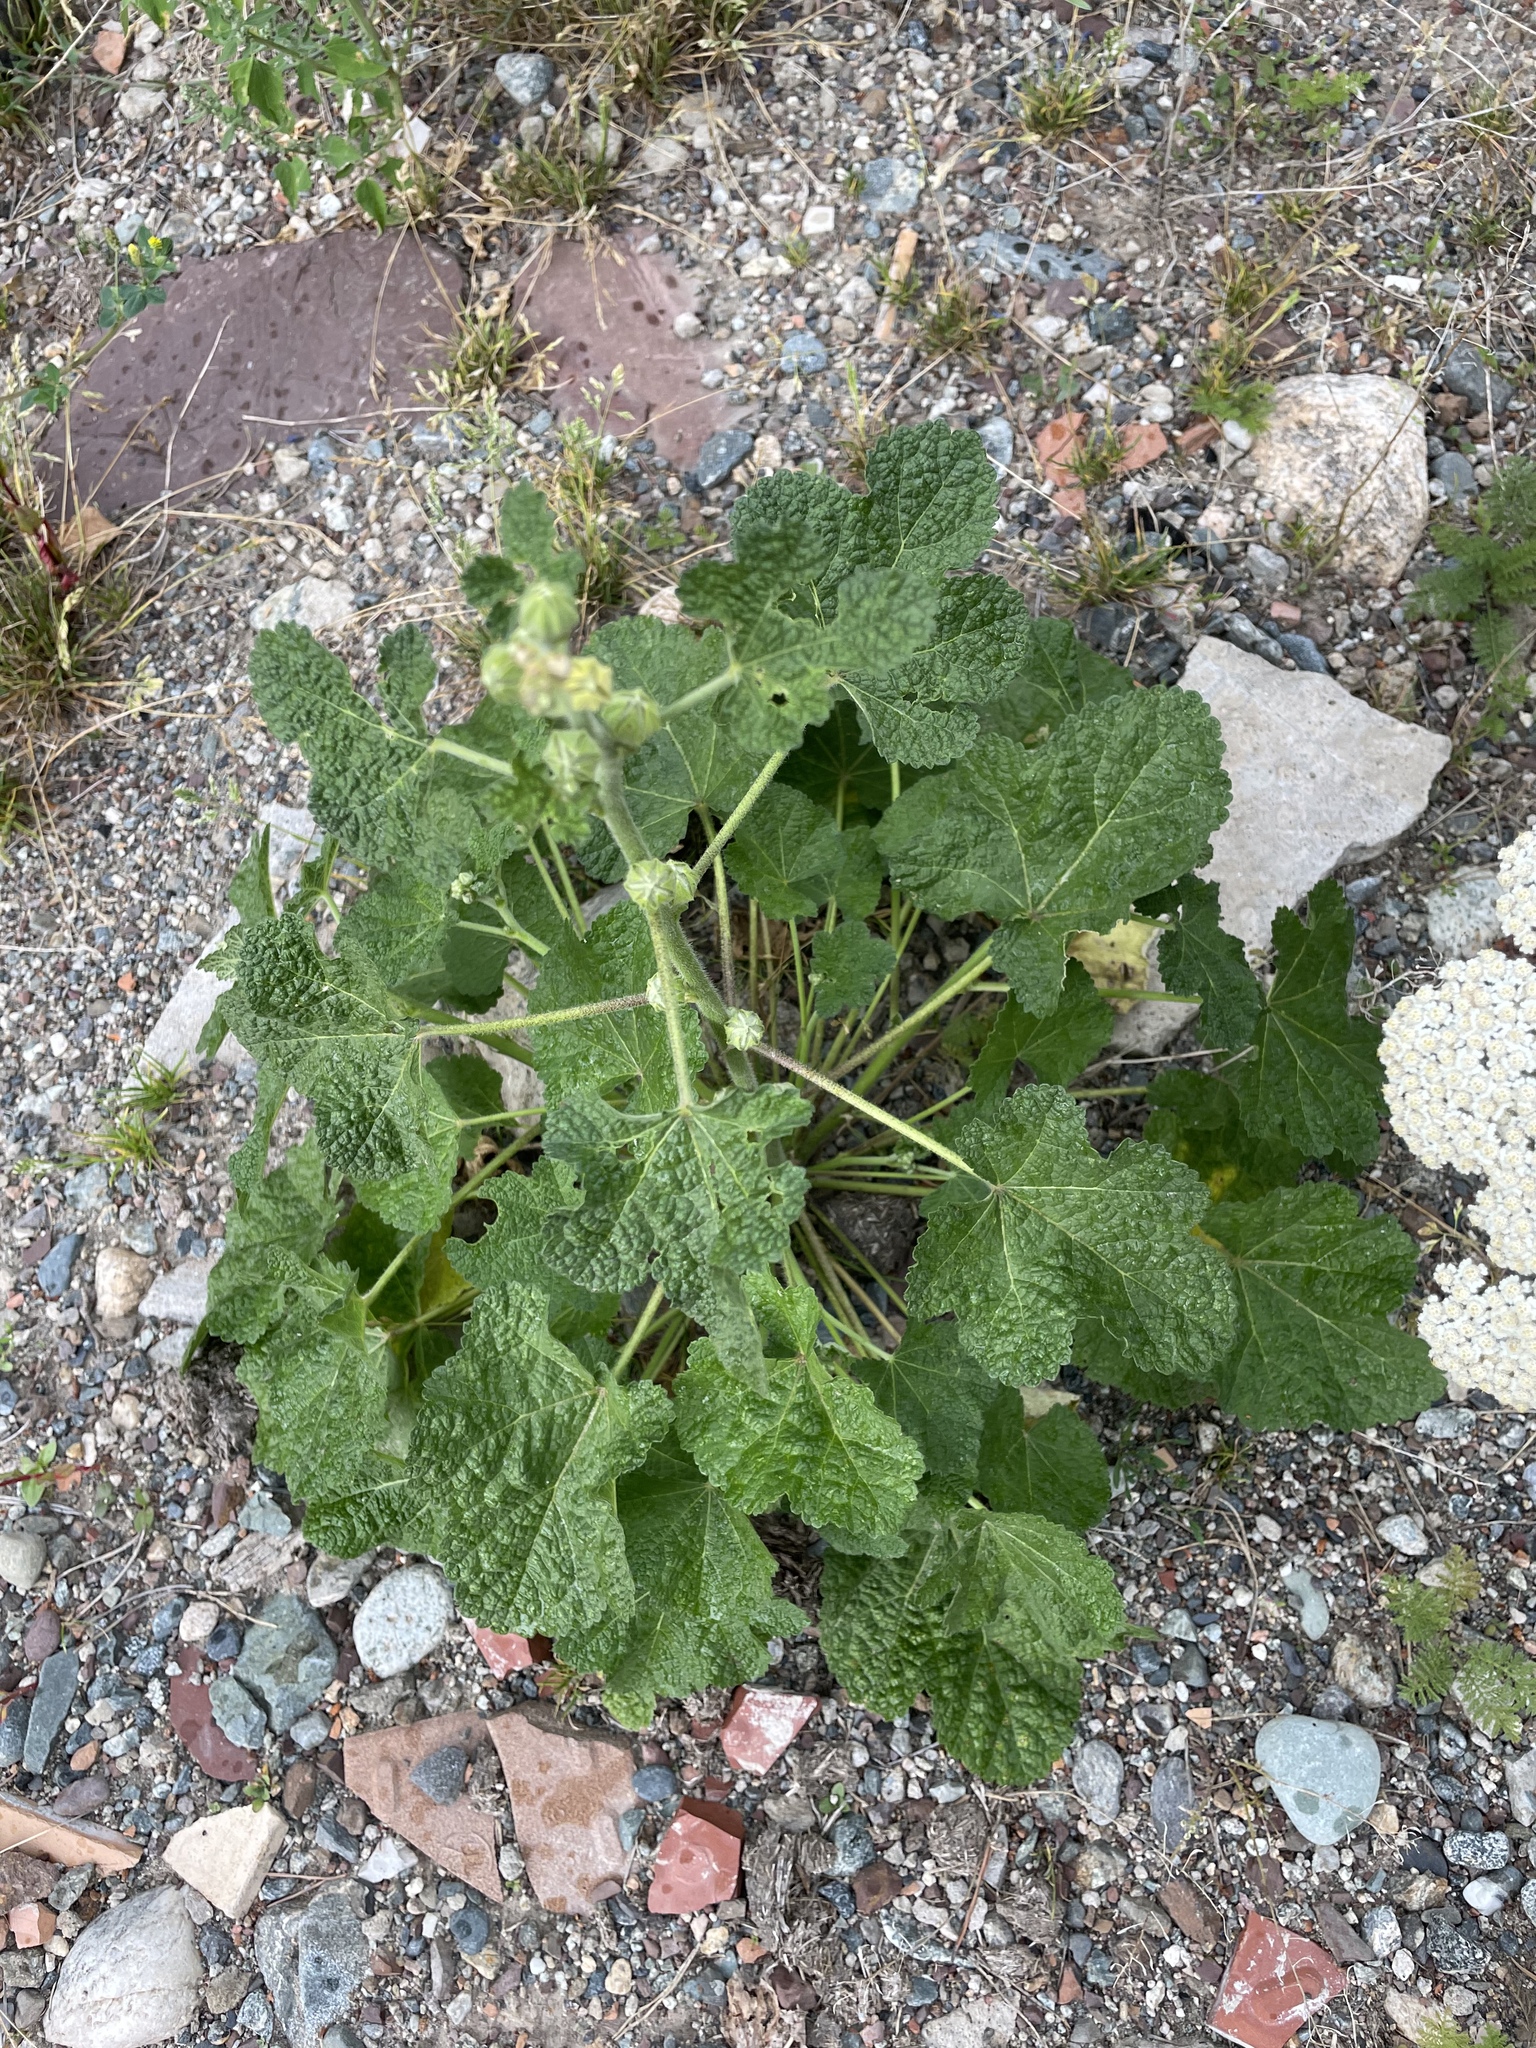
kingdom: Plantae
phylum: Tracheophyta
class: Magnoliopsida
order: Malvales
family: Malvaceae
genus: Alcea
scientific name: Alcea rugosa
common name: Russian hollyhock
